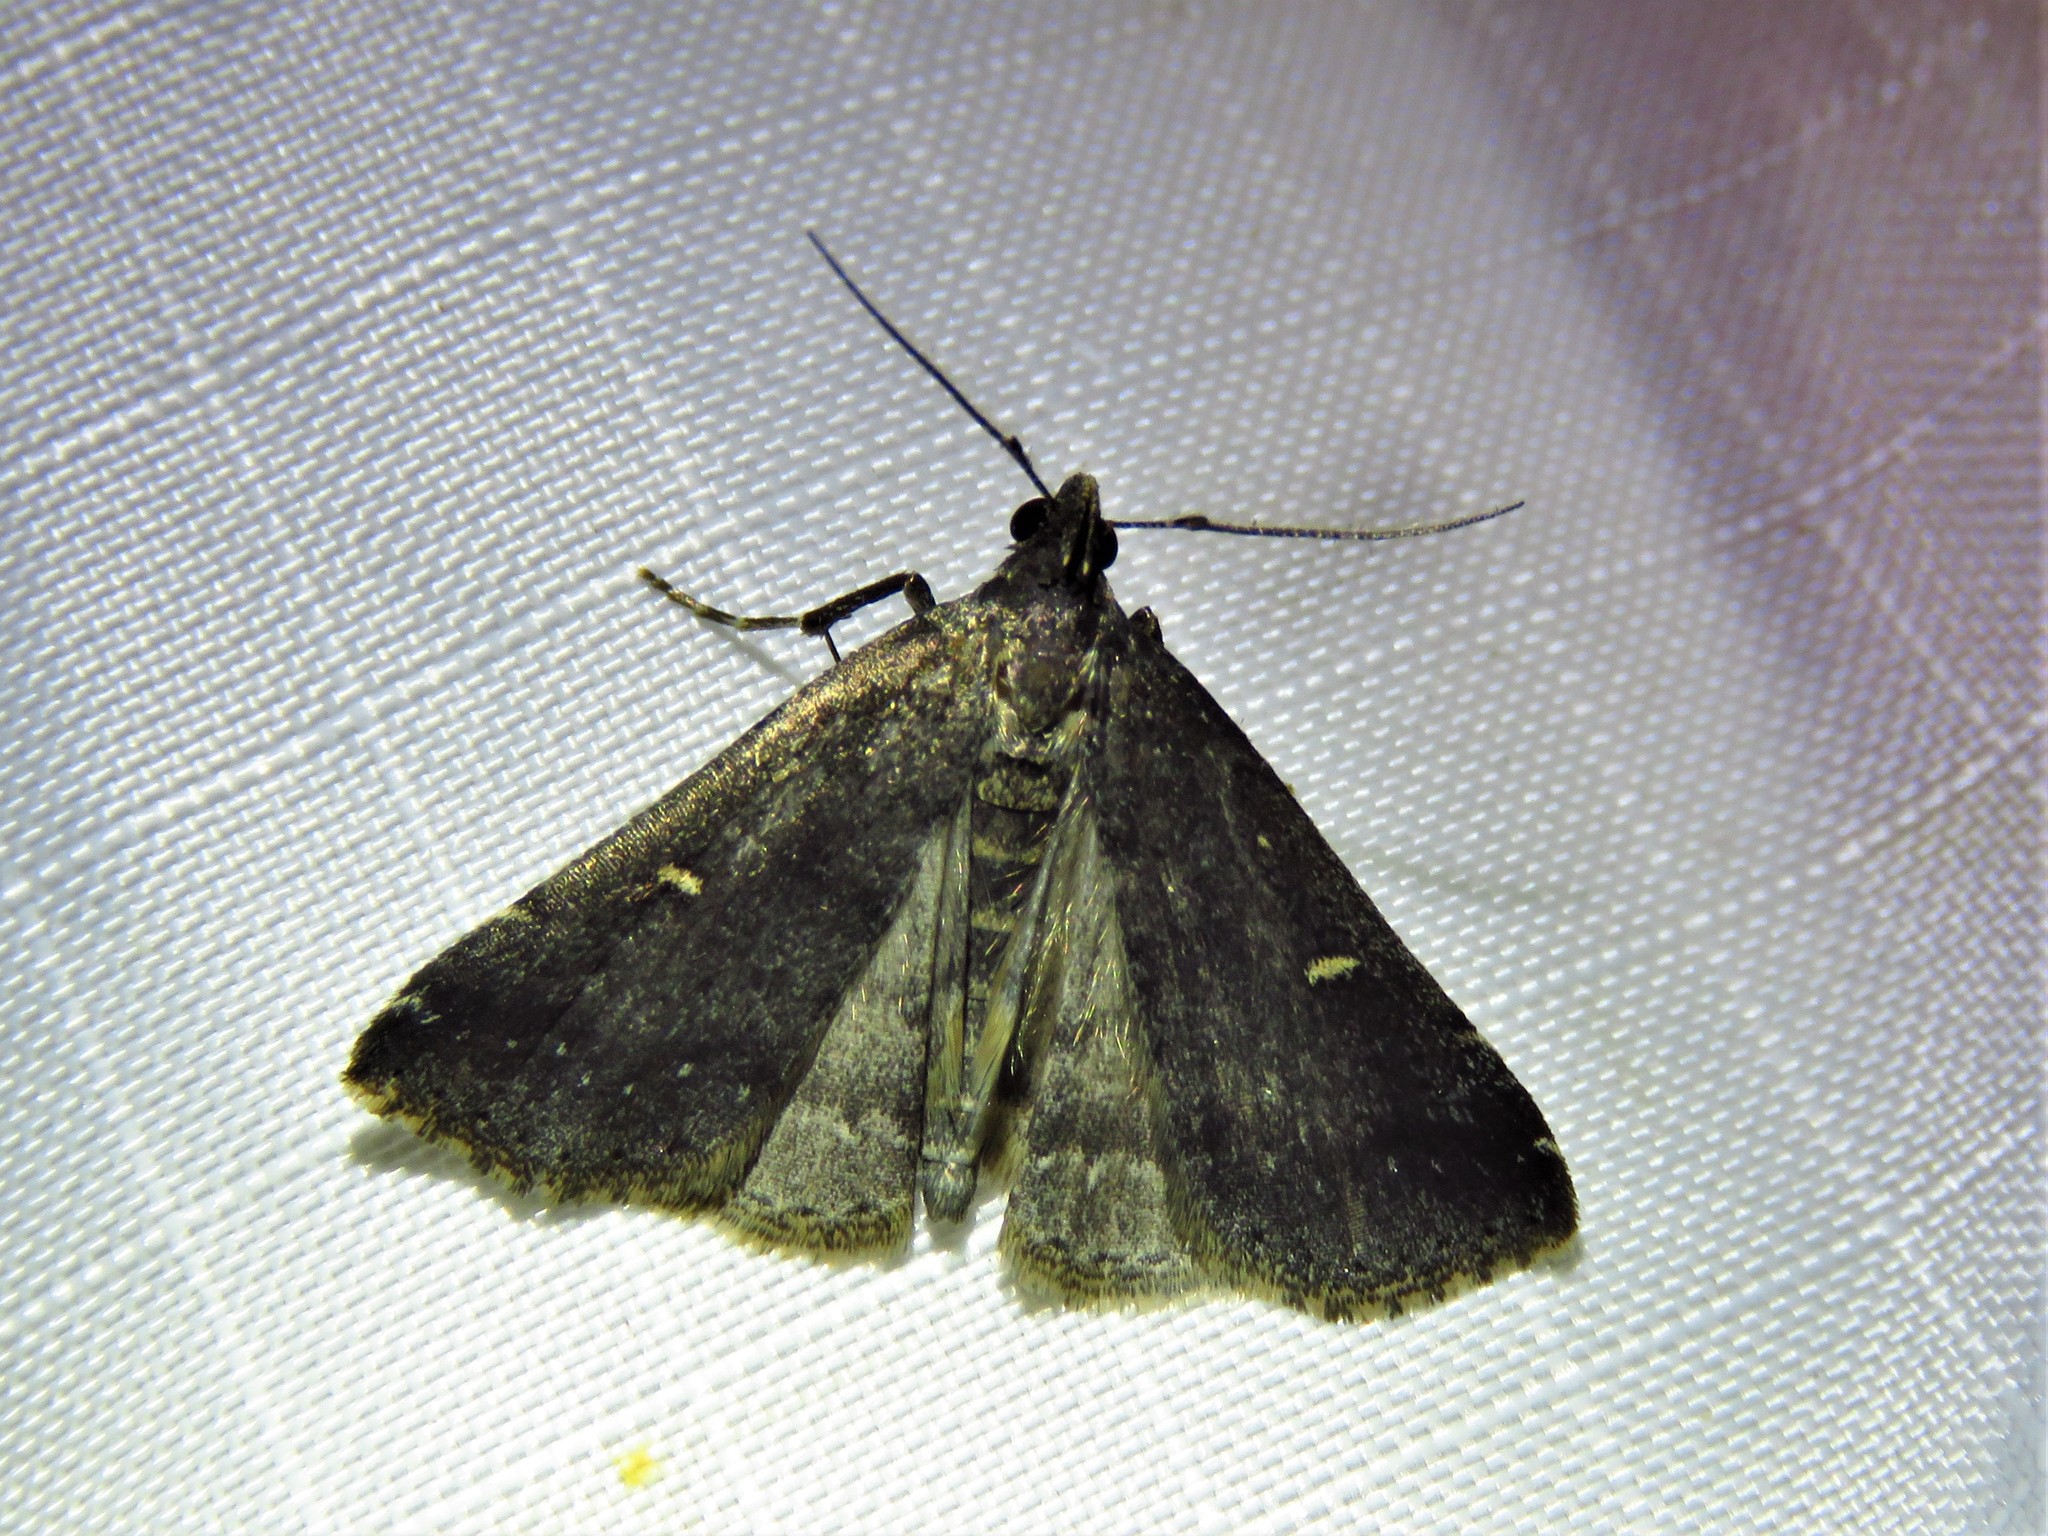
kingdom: Animalia
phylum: Arthropoda
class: Insecta
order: Lepidoptera
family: Erebidae
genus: Tetanolita
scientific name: Tetanolita mynesalis
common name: Smoky tetanolita moth
